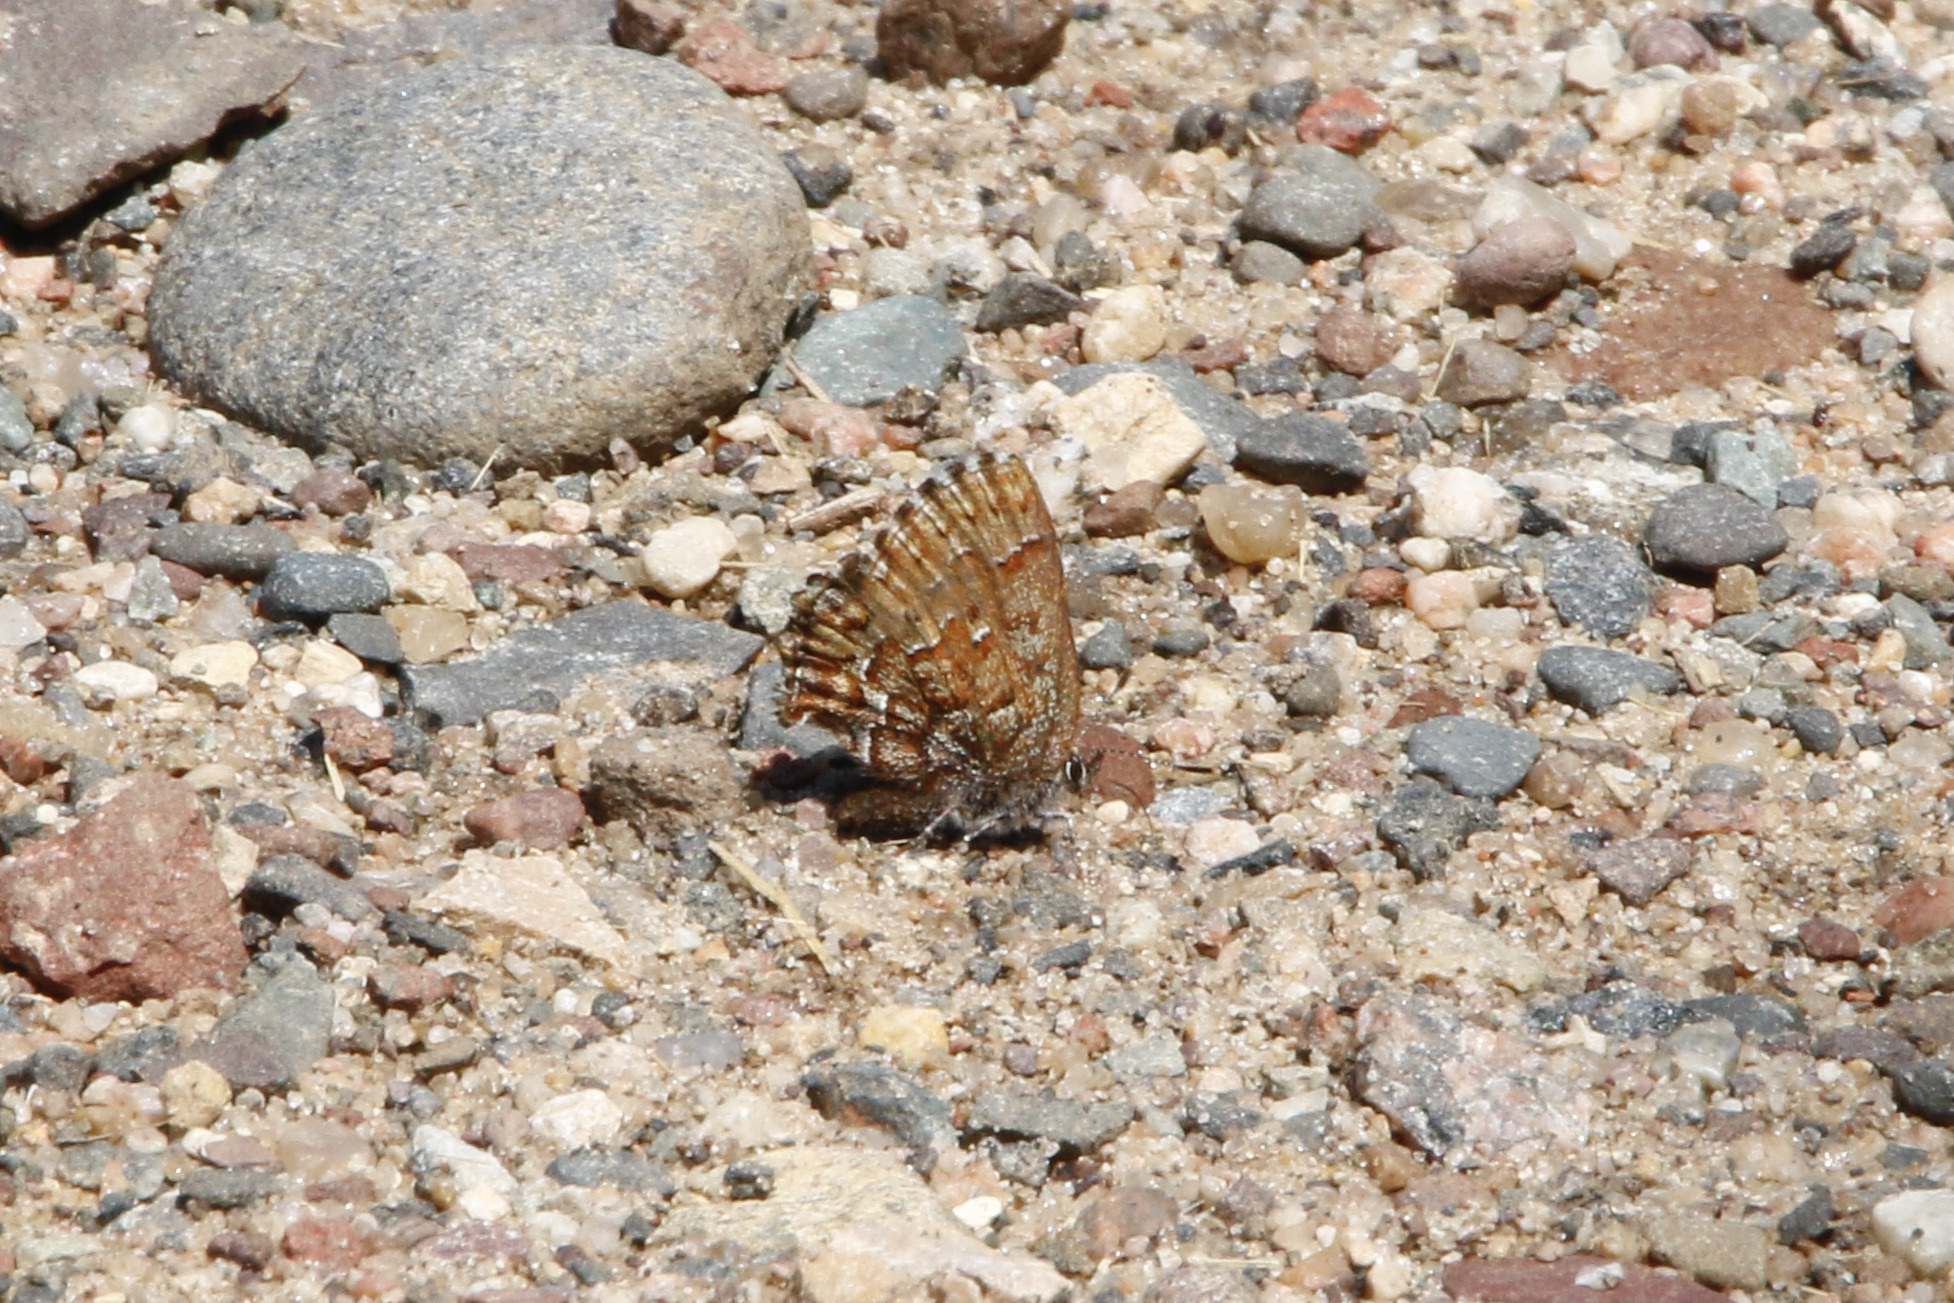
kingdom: Animalia
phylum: Arthropoda
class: Insecta
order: Lepidoptera
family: Lycaenidae
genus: Incisalia
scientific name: Incisalia niphon
